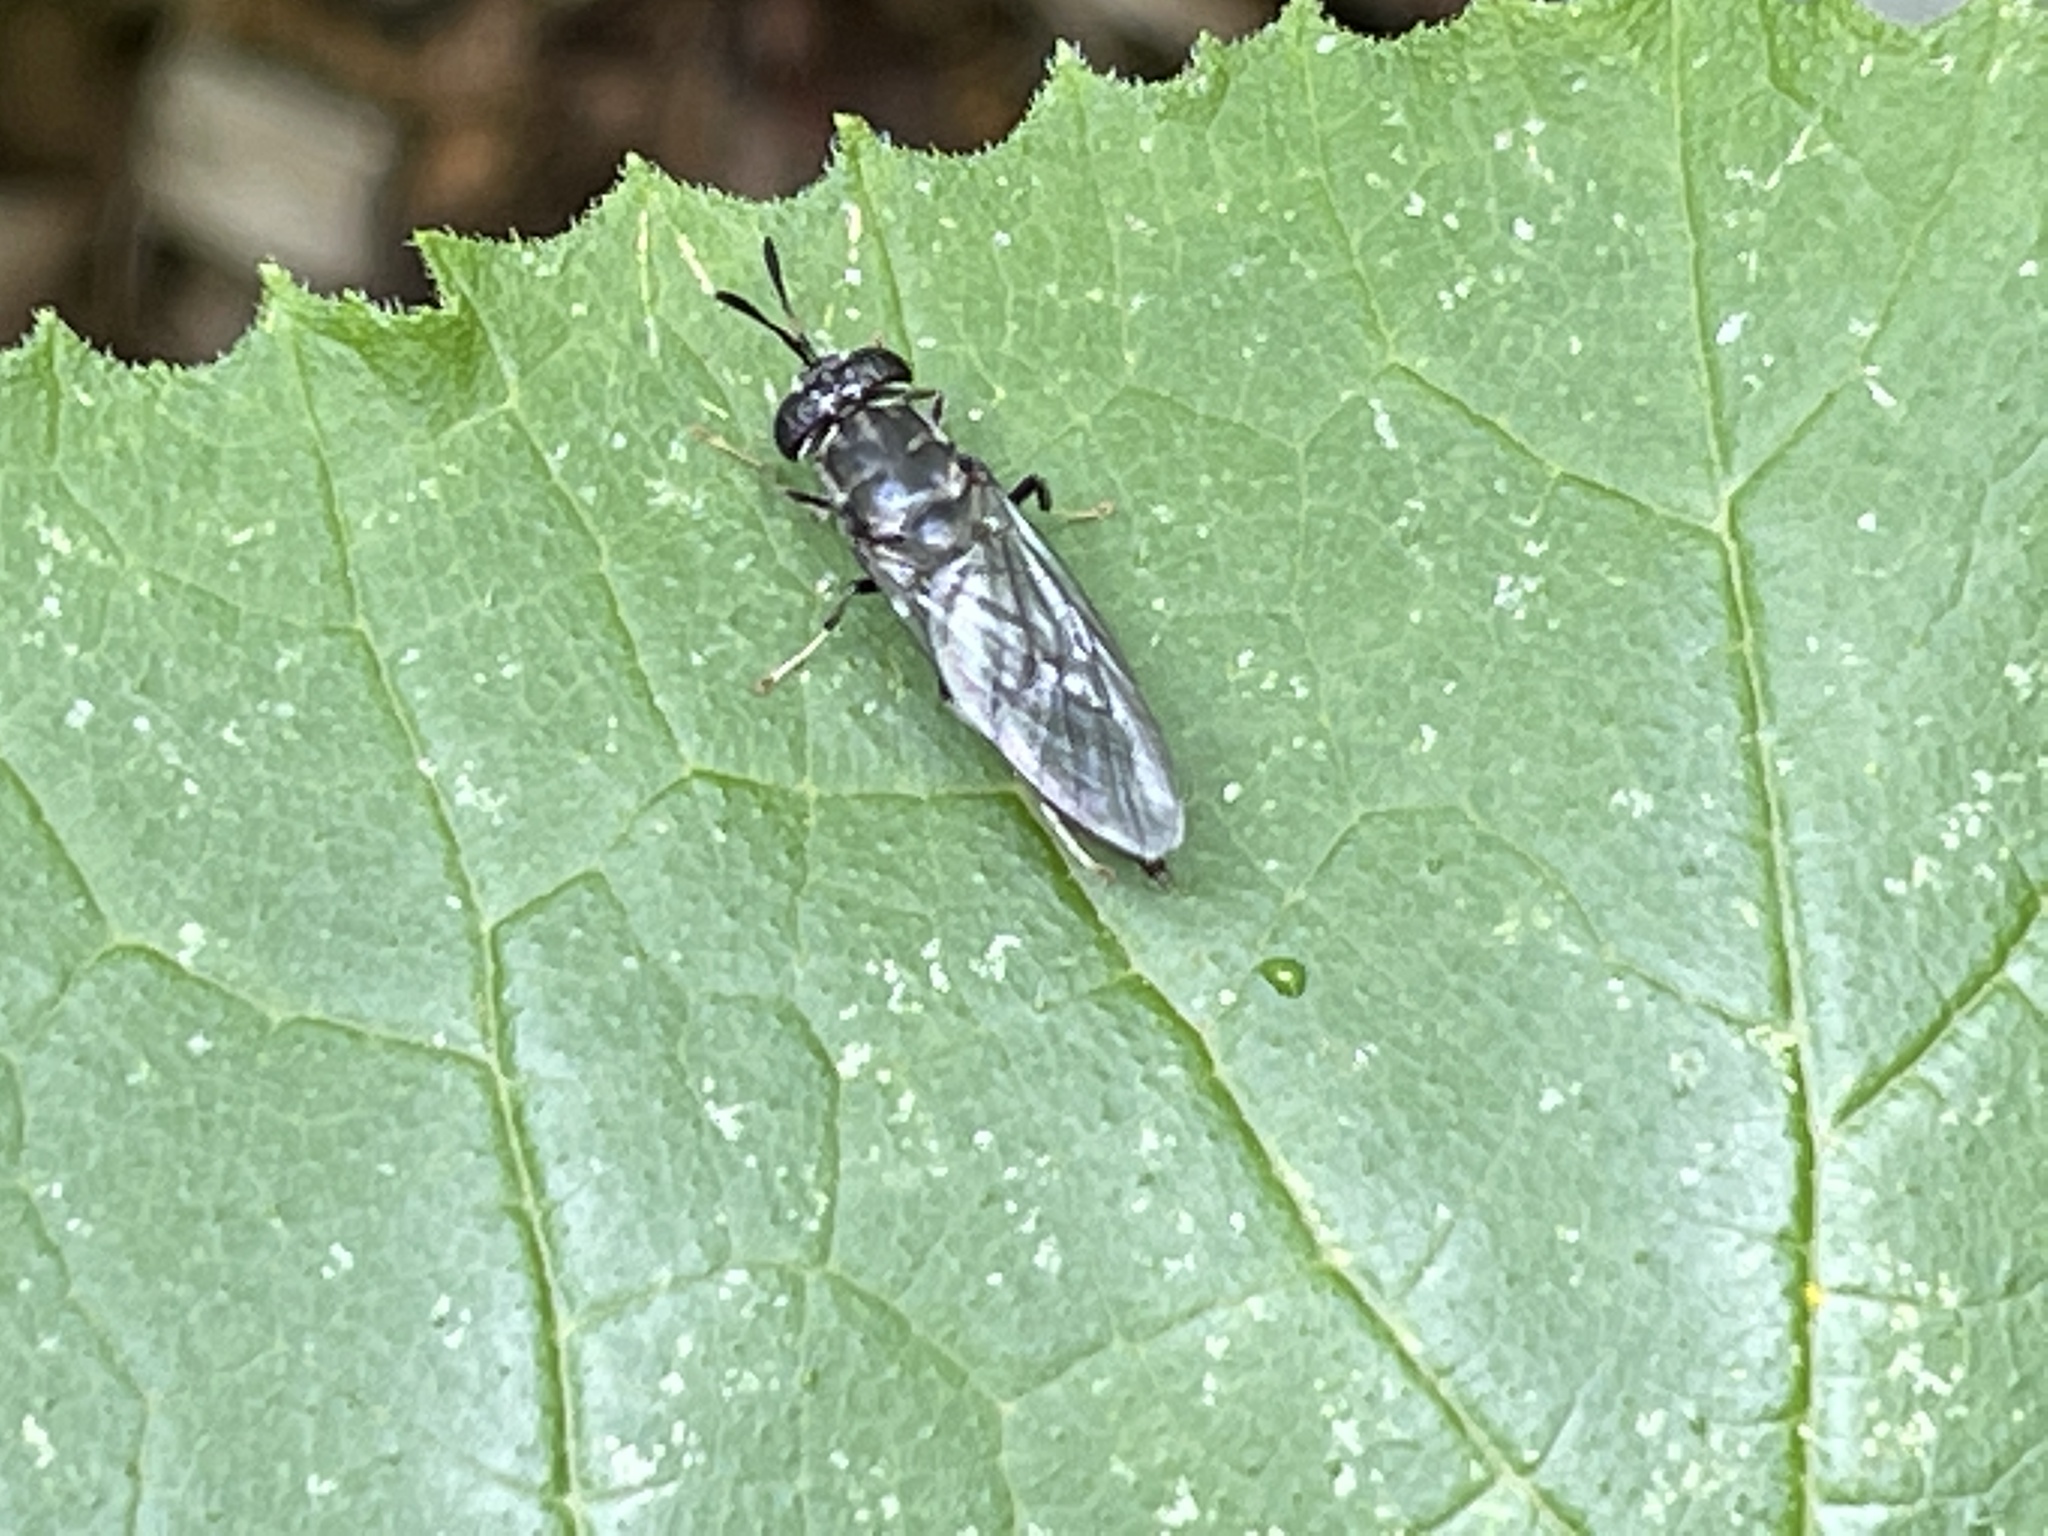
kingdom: Animalia
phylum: Arthropoda
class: Insecta
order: Diptera
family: Stratiomyidae
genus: Hermetia
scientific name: Hermetia illucens
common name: Black soldier fly
